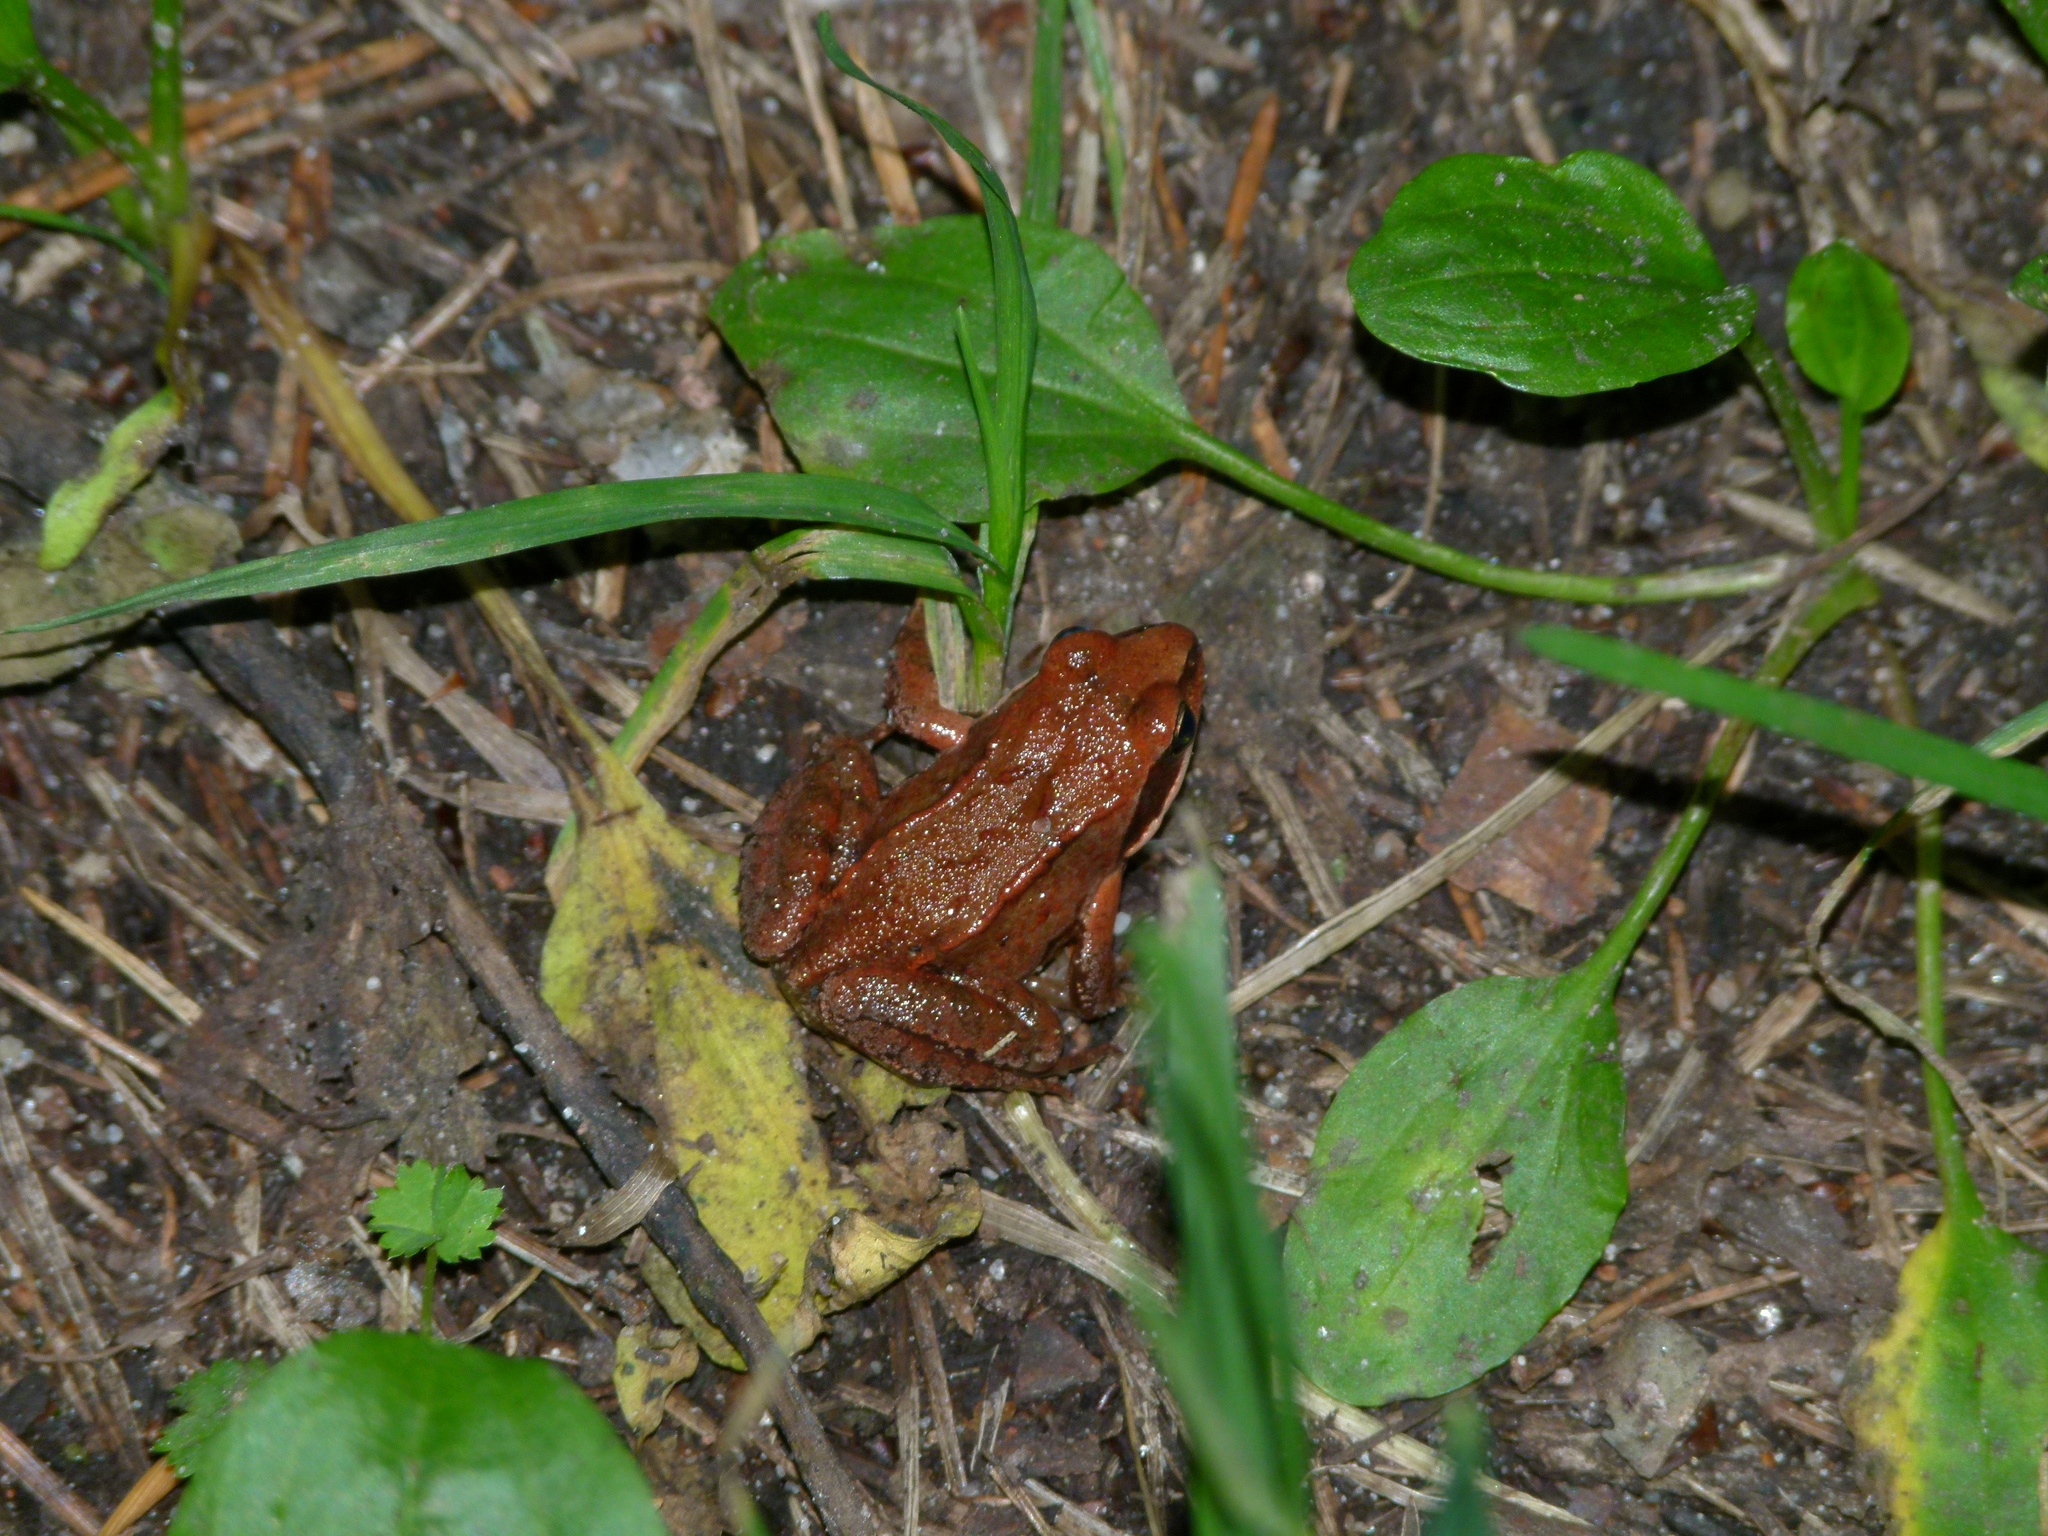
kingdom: Animalia
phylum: Chordata
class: Amphibia
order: Anura
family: Ranidae
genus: Rana
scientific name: Rana temporaria
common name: Common frog
